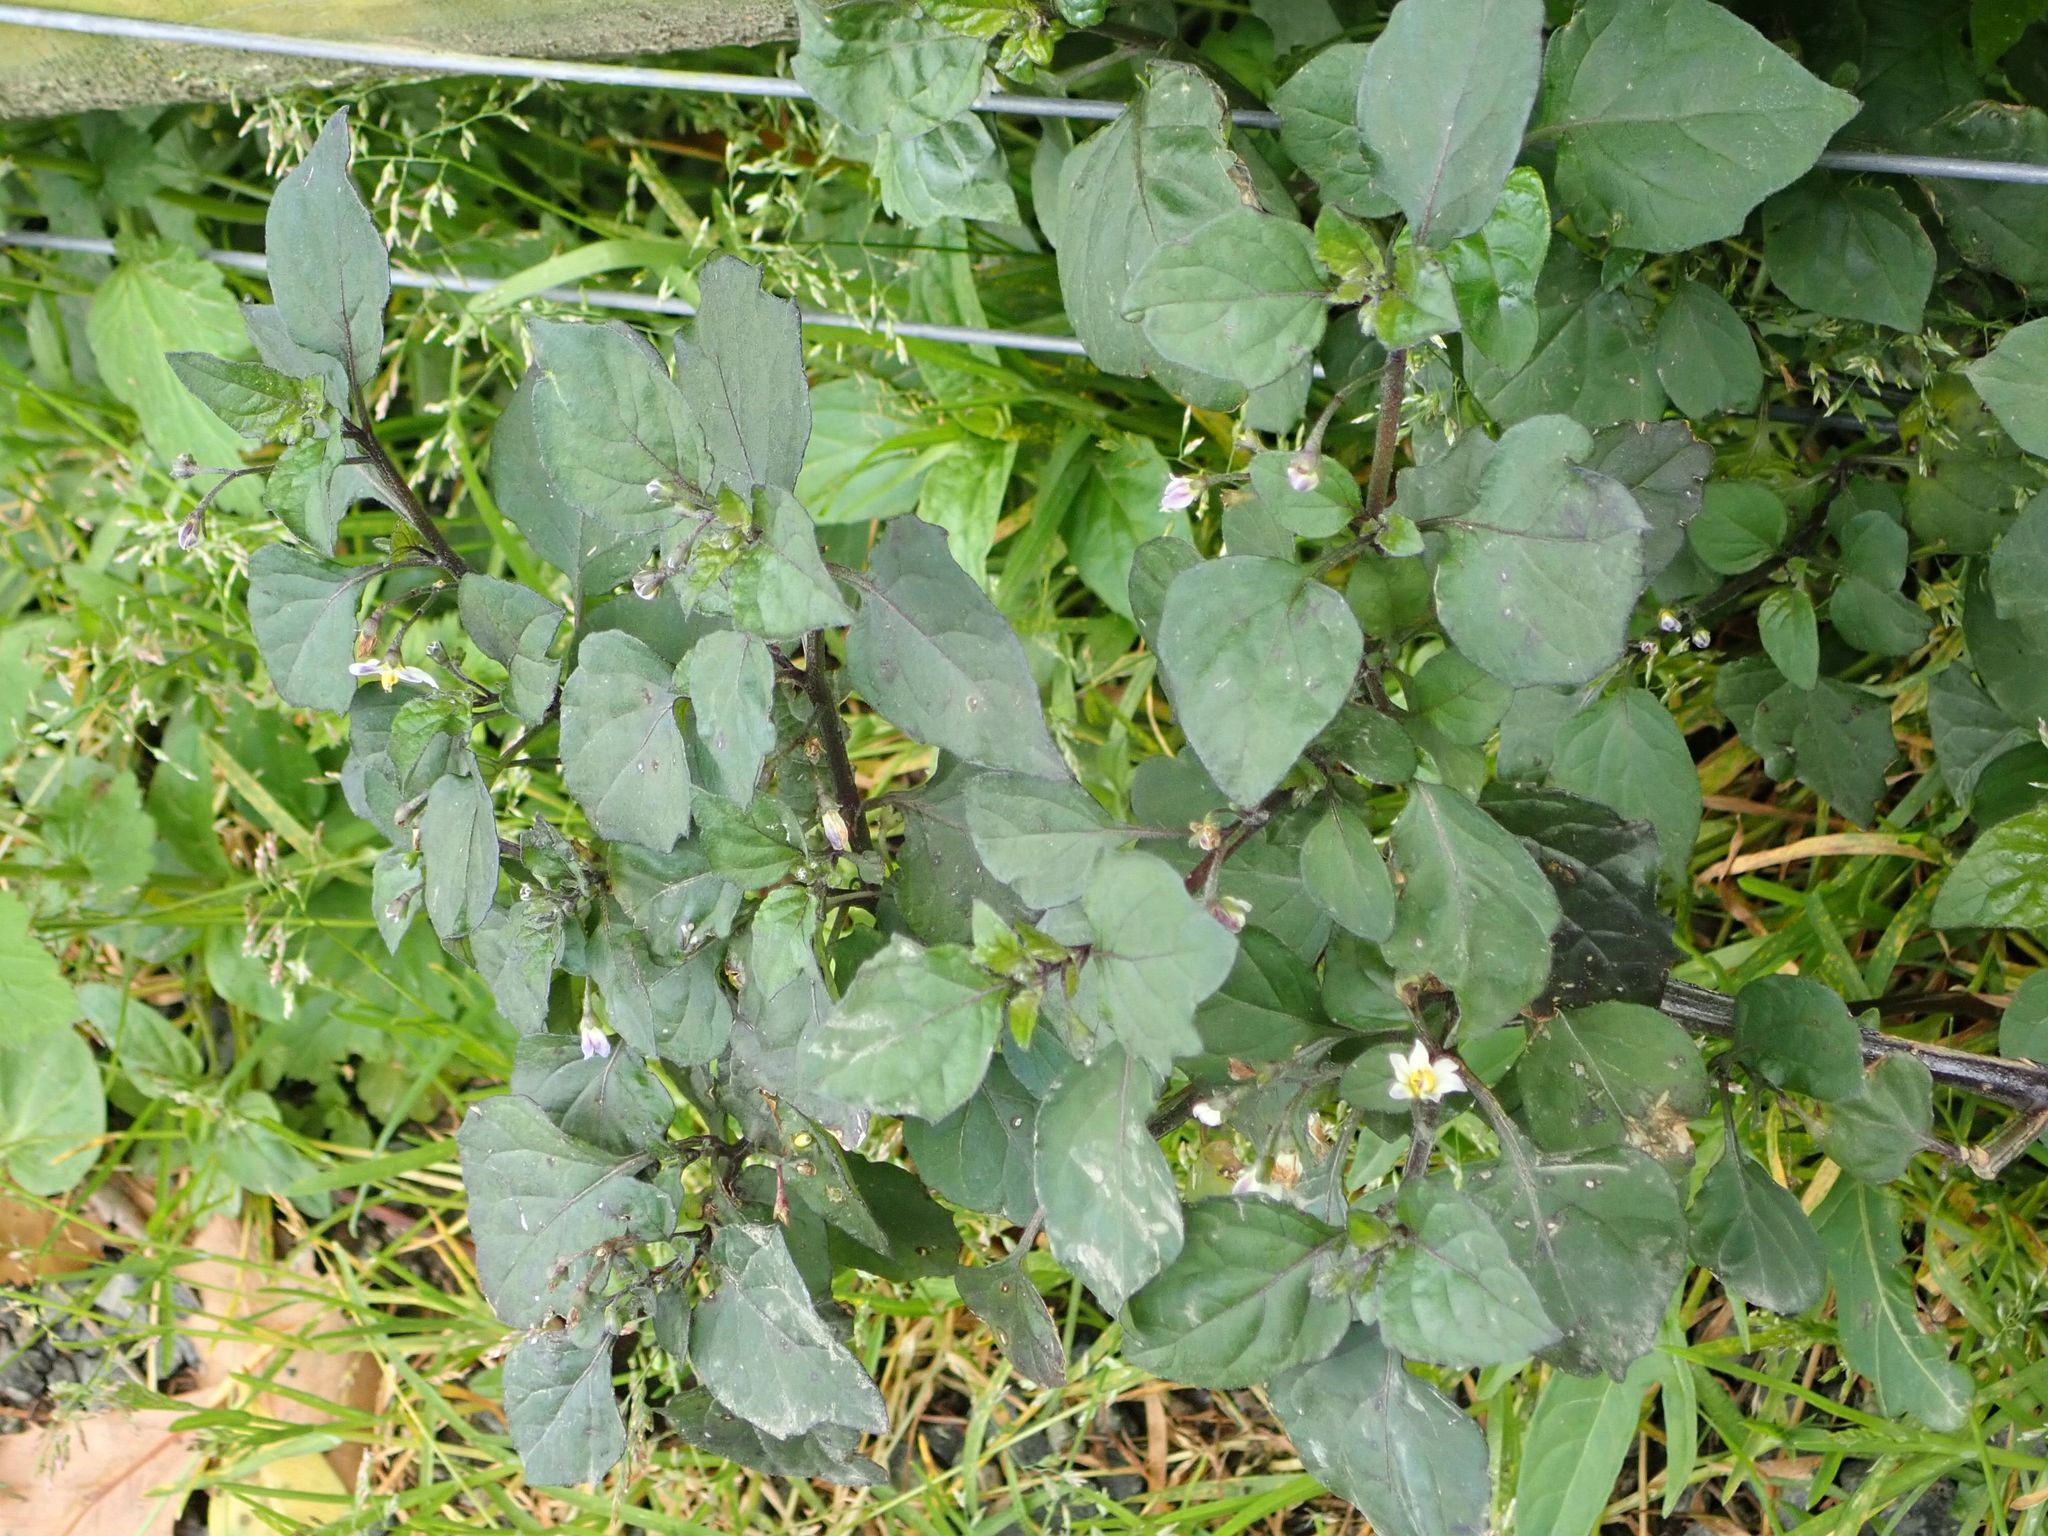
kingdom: Plantae
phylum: Tracheophyta
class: Magnoliopsida
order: Solanales
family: Solanaceae
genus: Solanum
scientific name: Solanum nigrum
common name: Black nightshade
